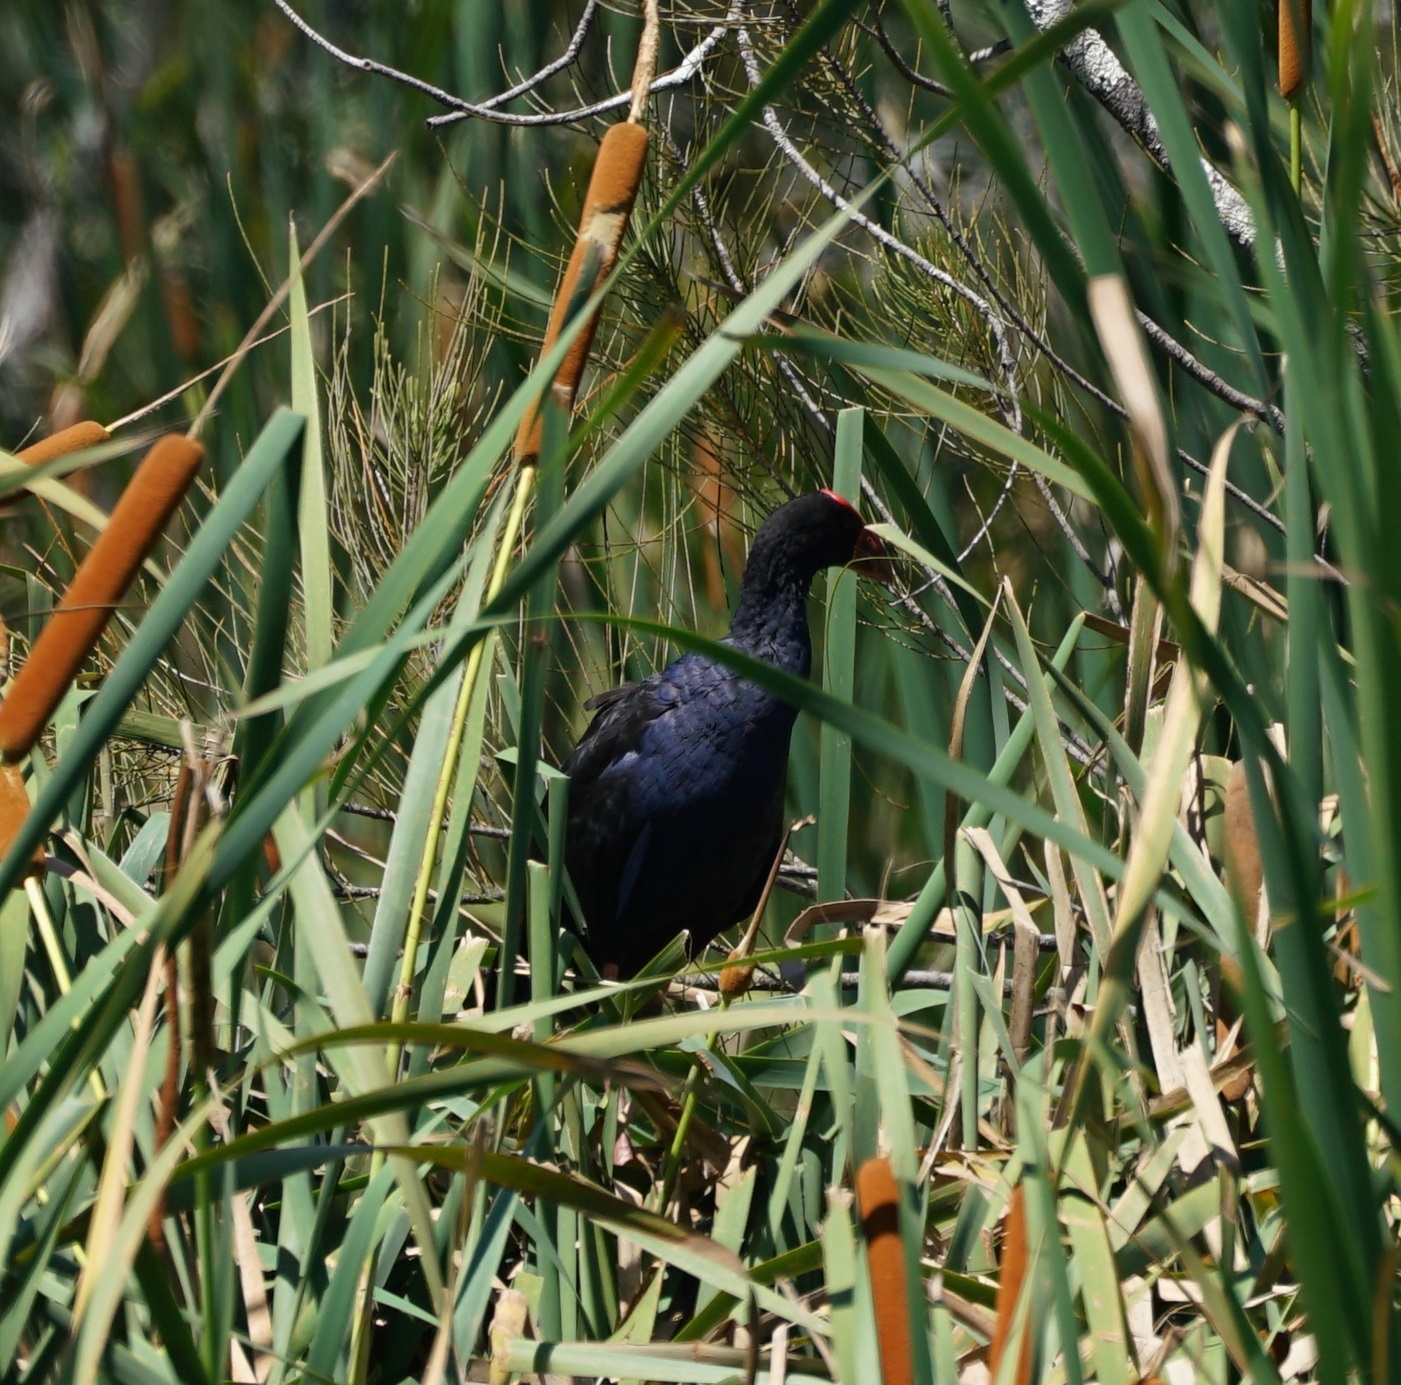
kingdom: Animalia
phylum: Chordata
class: Aves
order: Gruiformes
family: Rallidae
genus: Porphyrio
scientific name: Porphyrio melanotus
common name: Australasian swamphen
